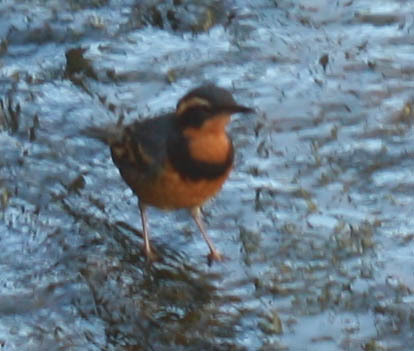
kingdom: Animalia
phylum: Chordata
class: Aves
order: Passeriformes
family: Turdidae
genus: Ixoreus
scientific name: Ixoreus naevius
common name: Varied thrush
